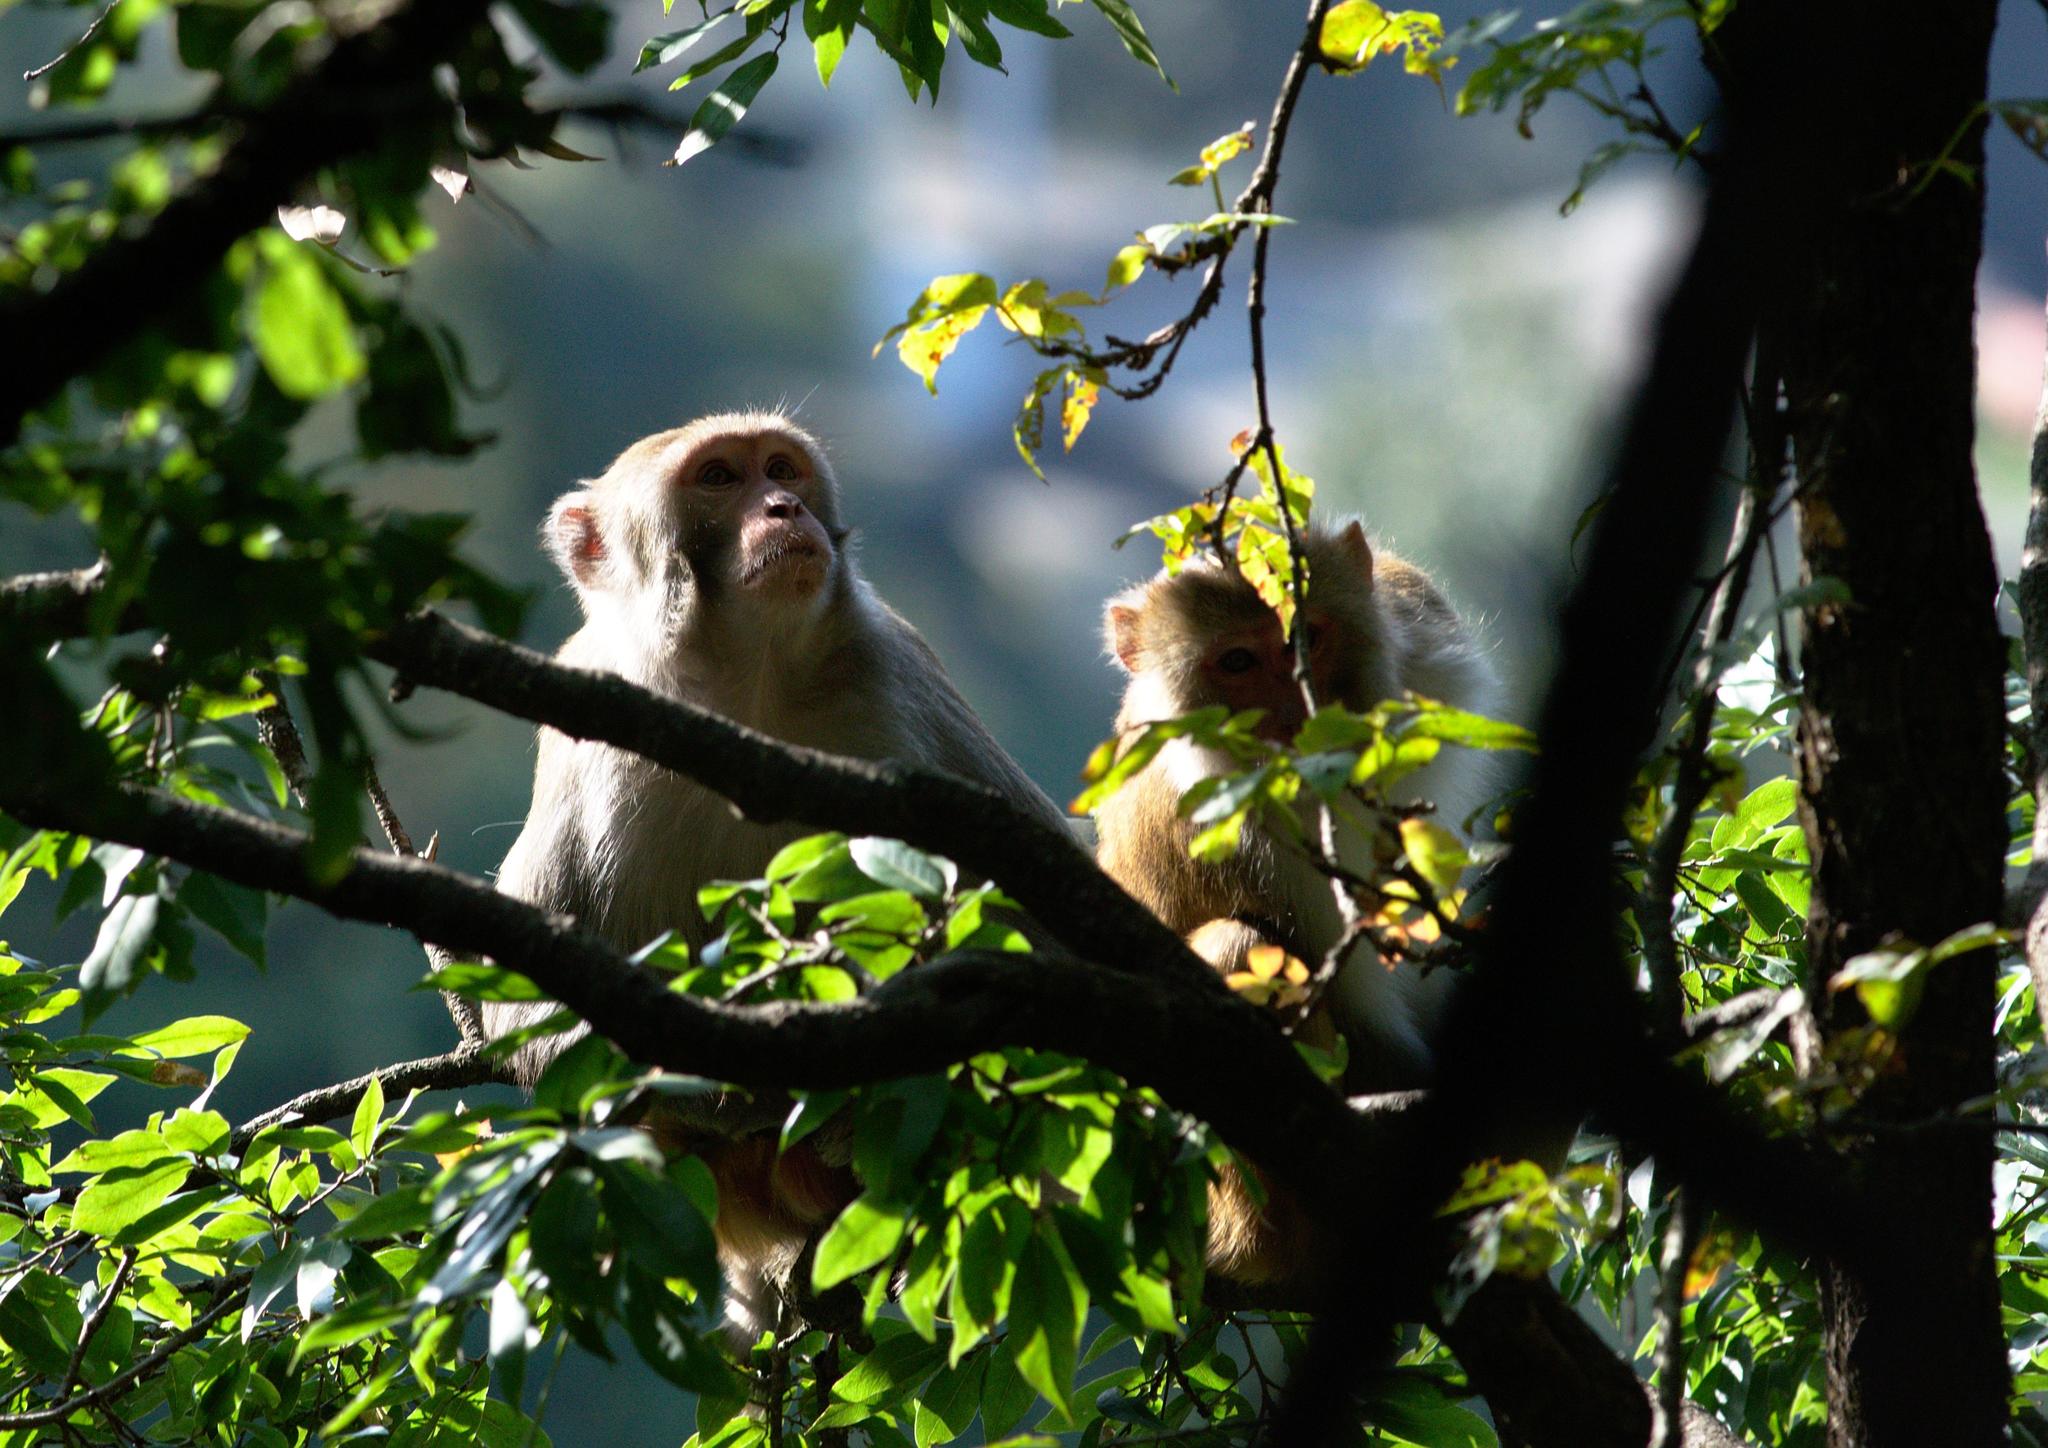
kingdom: Animalia
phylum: Chordata
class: Mammalia
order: Primates
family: Cercopithecidae
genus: Macaca
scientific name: Macaca mulatta
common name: Rhesus monkey
